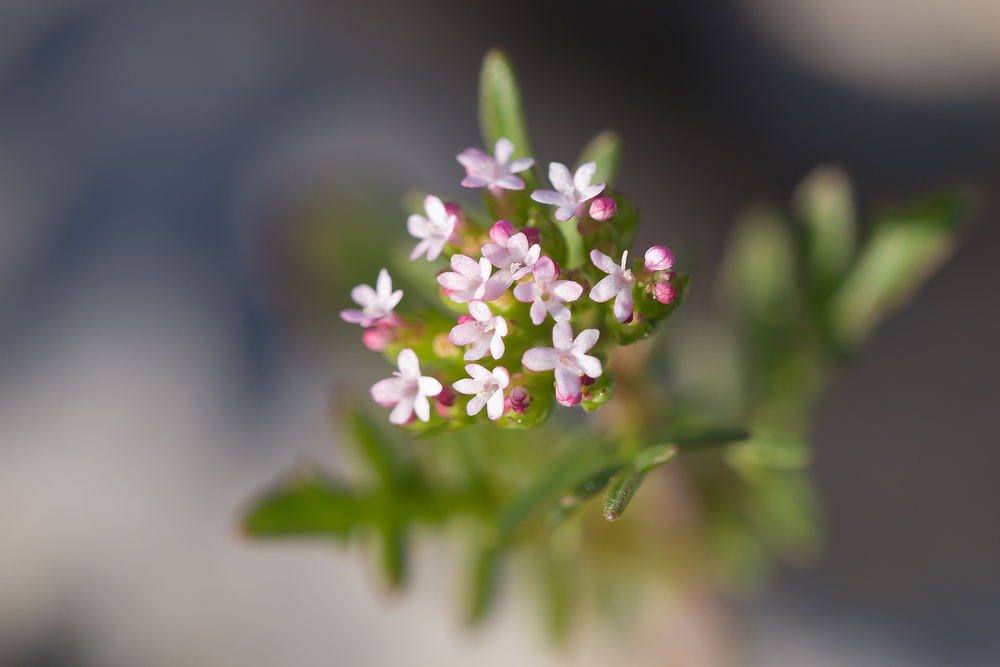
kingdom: Plantae
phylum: Tracheophyta
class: Magnoliopsida
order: Dipsacales
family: Caprifoliaceae
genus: Centranthus
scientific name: Centranthus calcitrapae
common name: Annual valerian
